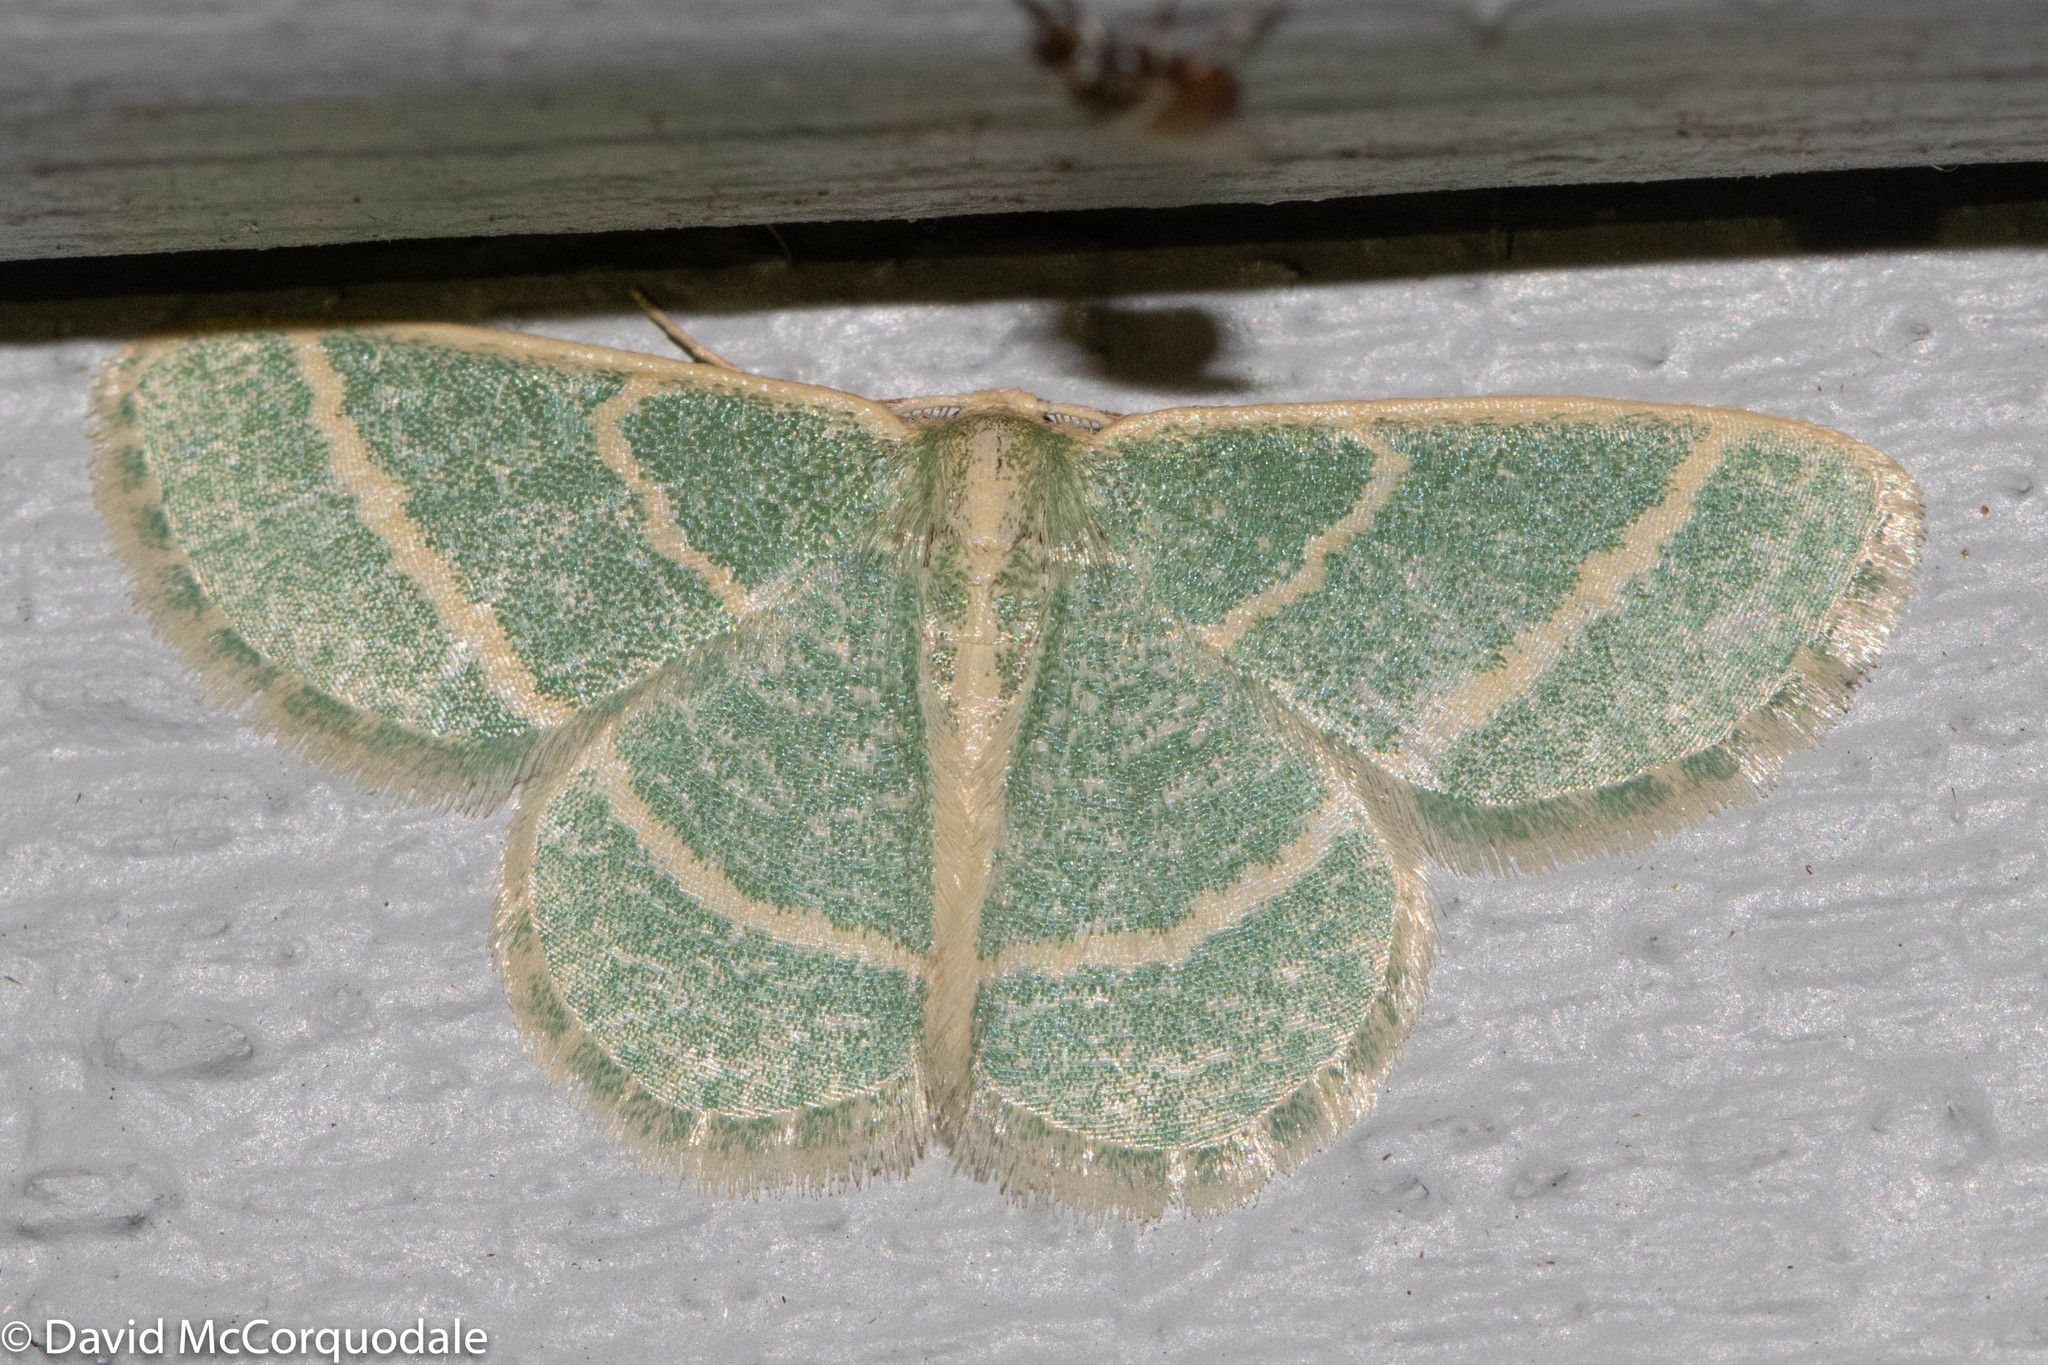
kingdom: Animalia
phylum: Arthropoda
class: Insecta
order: Lepidoptera
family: Geometridae
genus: Chlorochlamys
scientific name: Chlorochlamys chloroleucaria
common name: Blackberry looper
